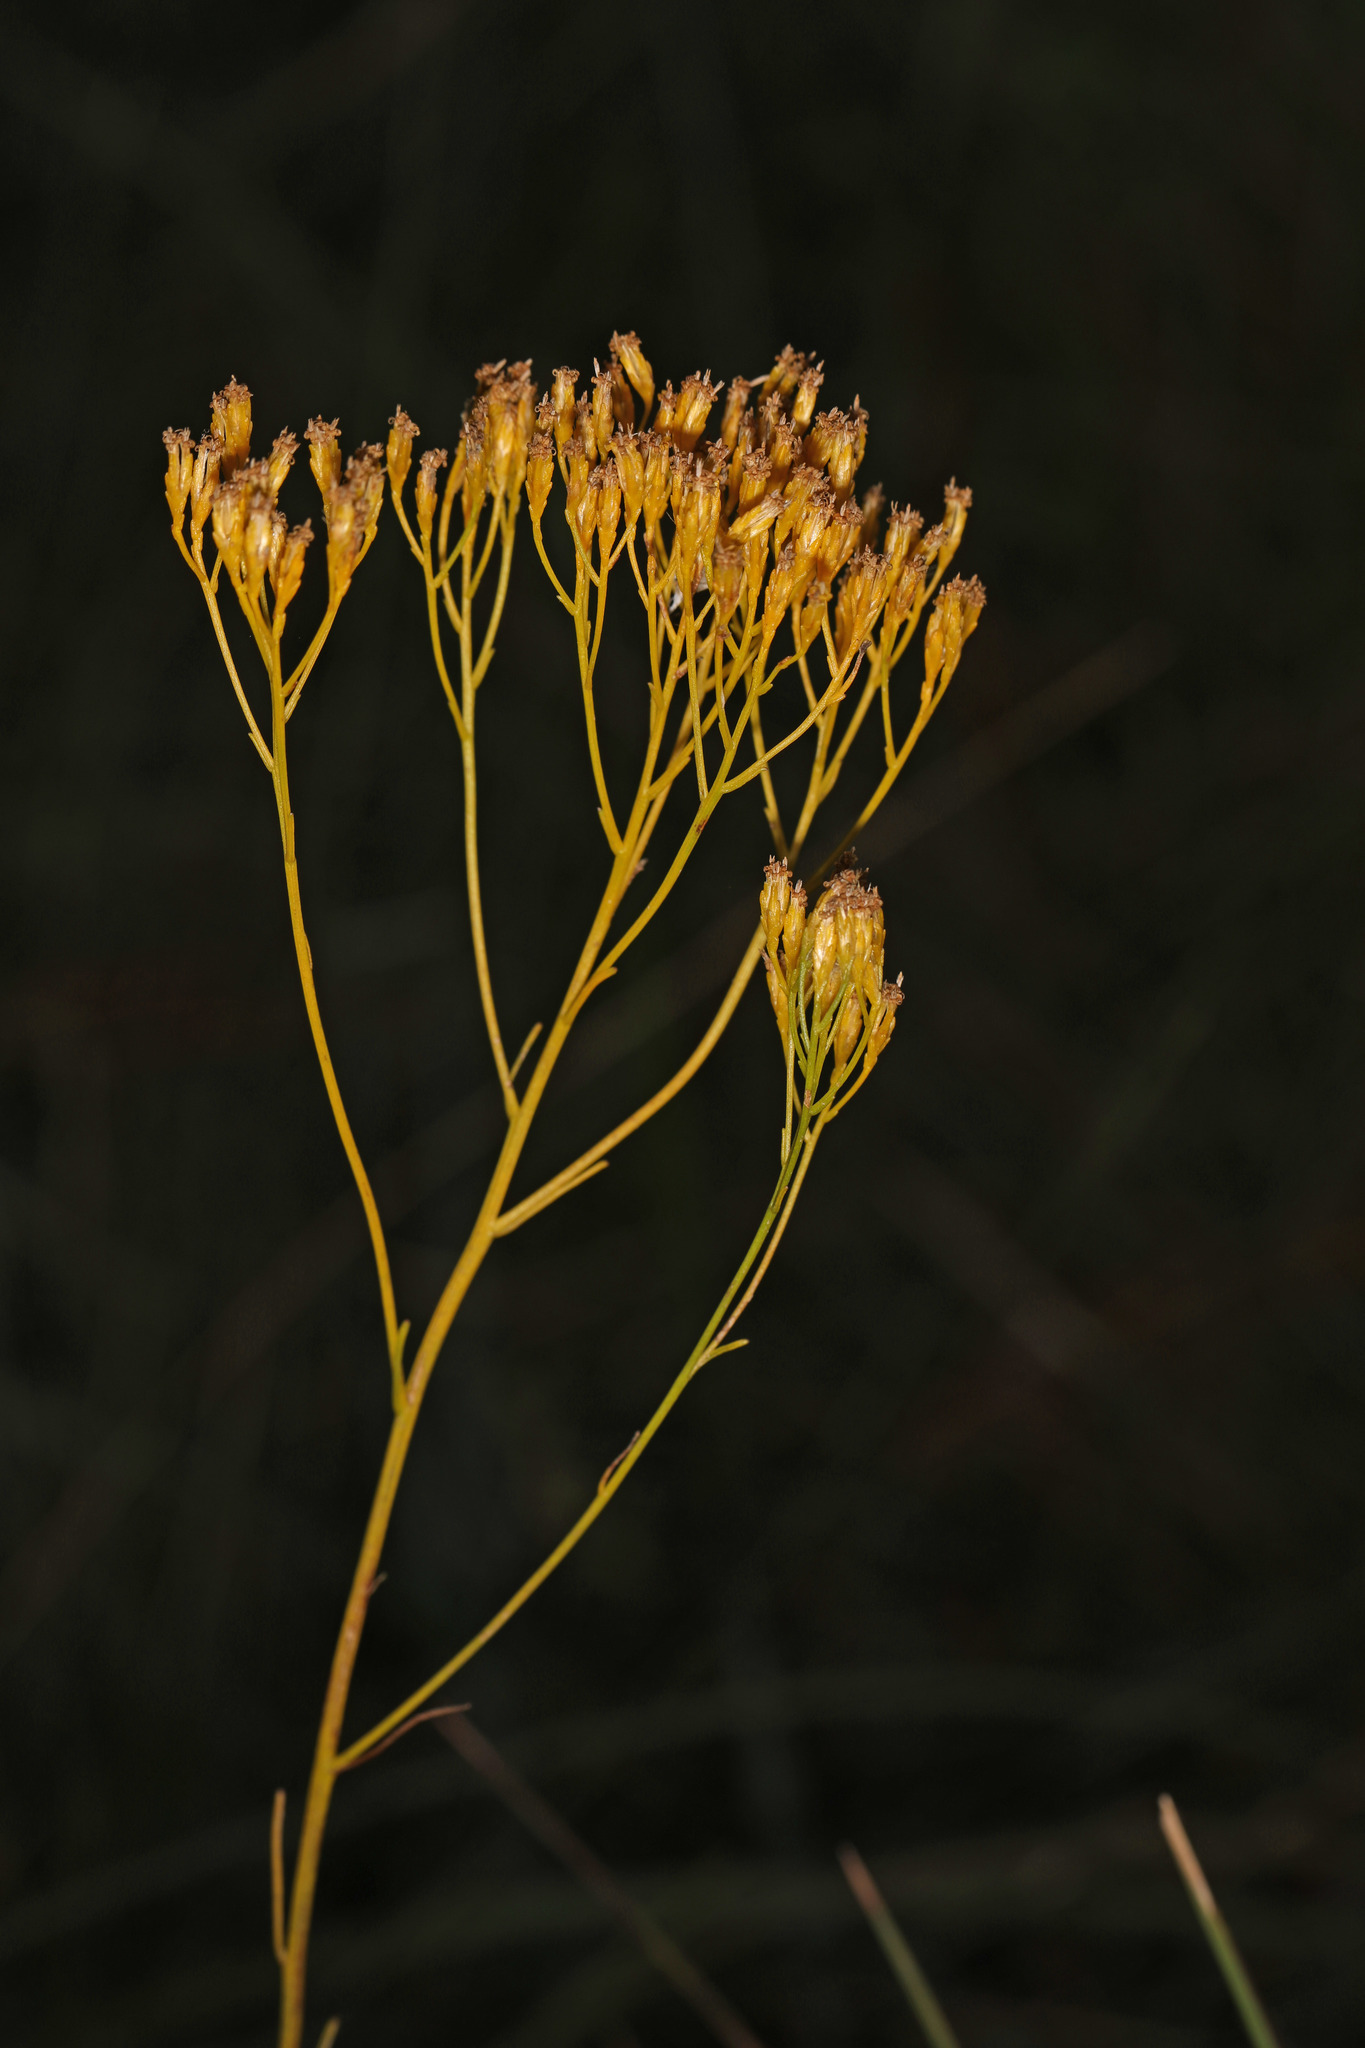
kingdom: Plantae
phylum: Tracheophyta
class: Magnoliopsida
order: Asterales
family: Asteraceae
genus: Bigelowia
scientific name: Bigelowia nudata
